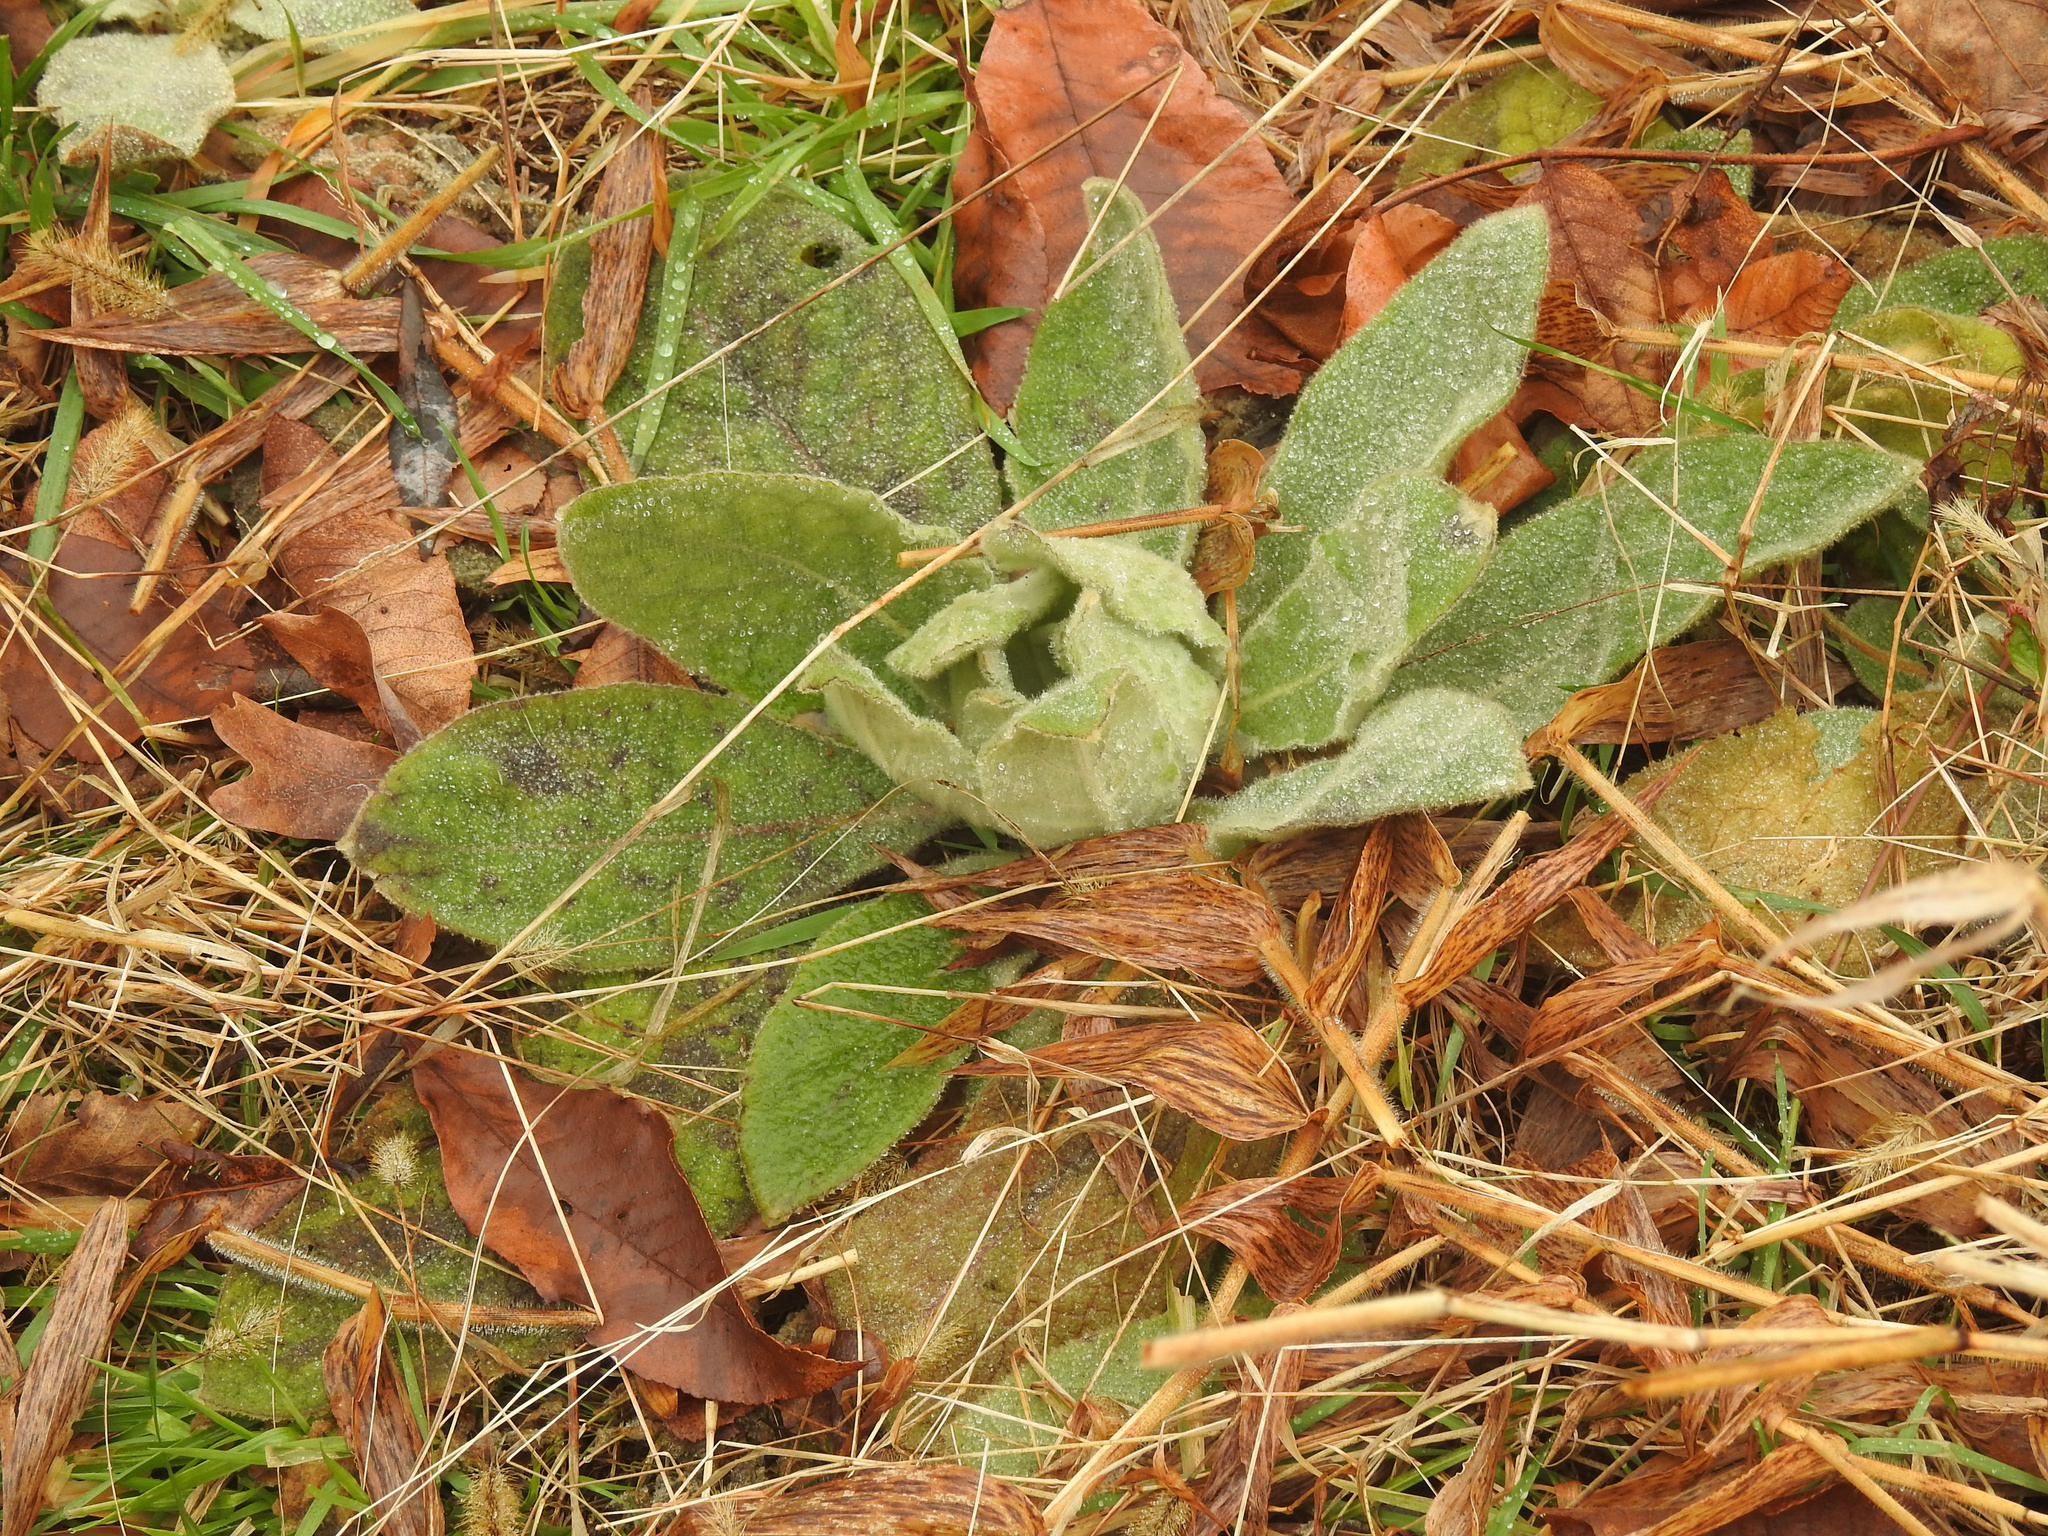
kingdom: Plantae
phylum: Tracheophyta
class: Magnoliopsida
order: Lamiales
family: Scrophulariaceae
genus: Verbascum
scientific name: Verbascum thapsus
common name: Common mullein
